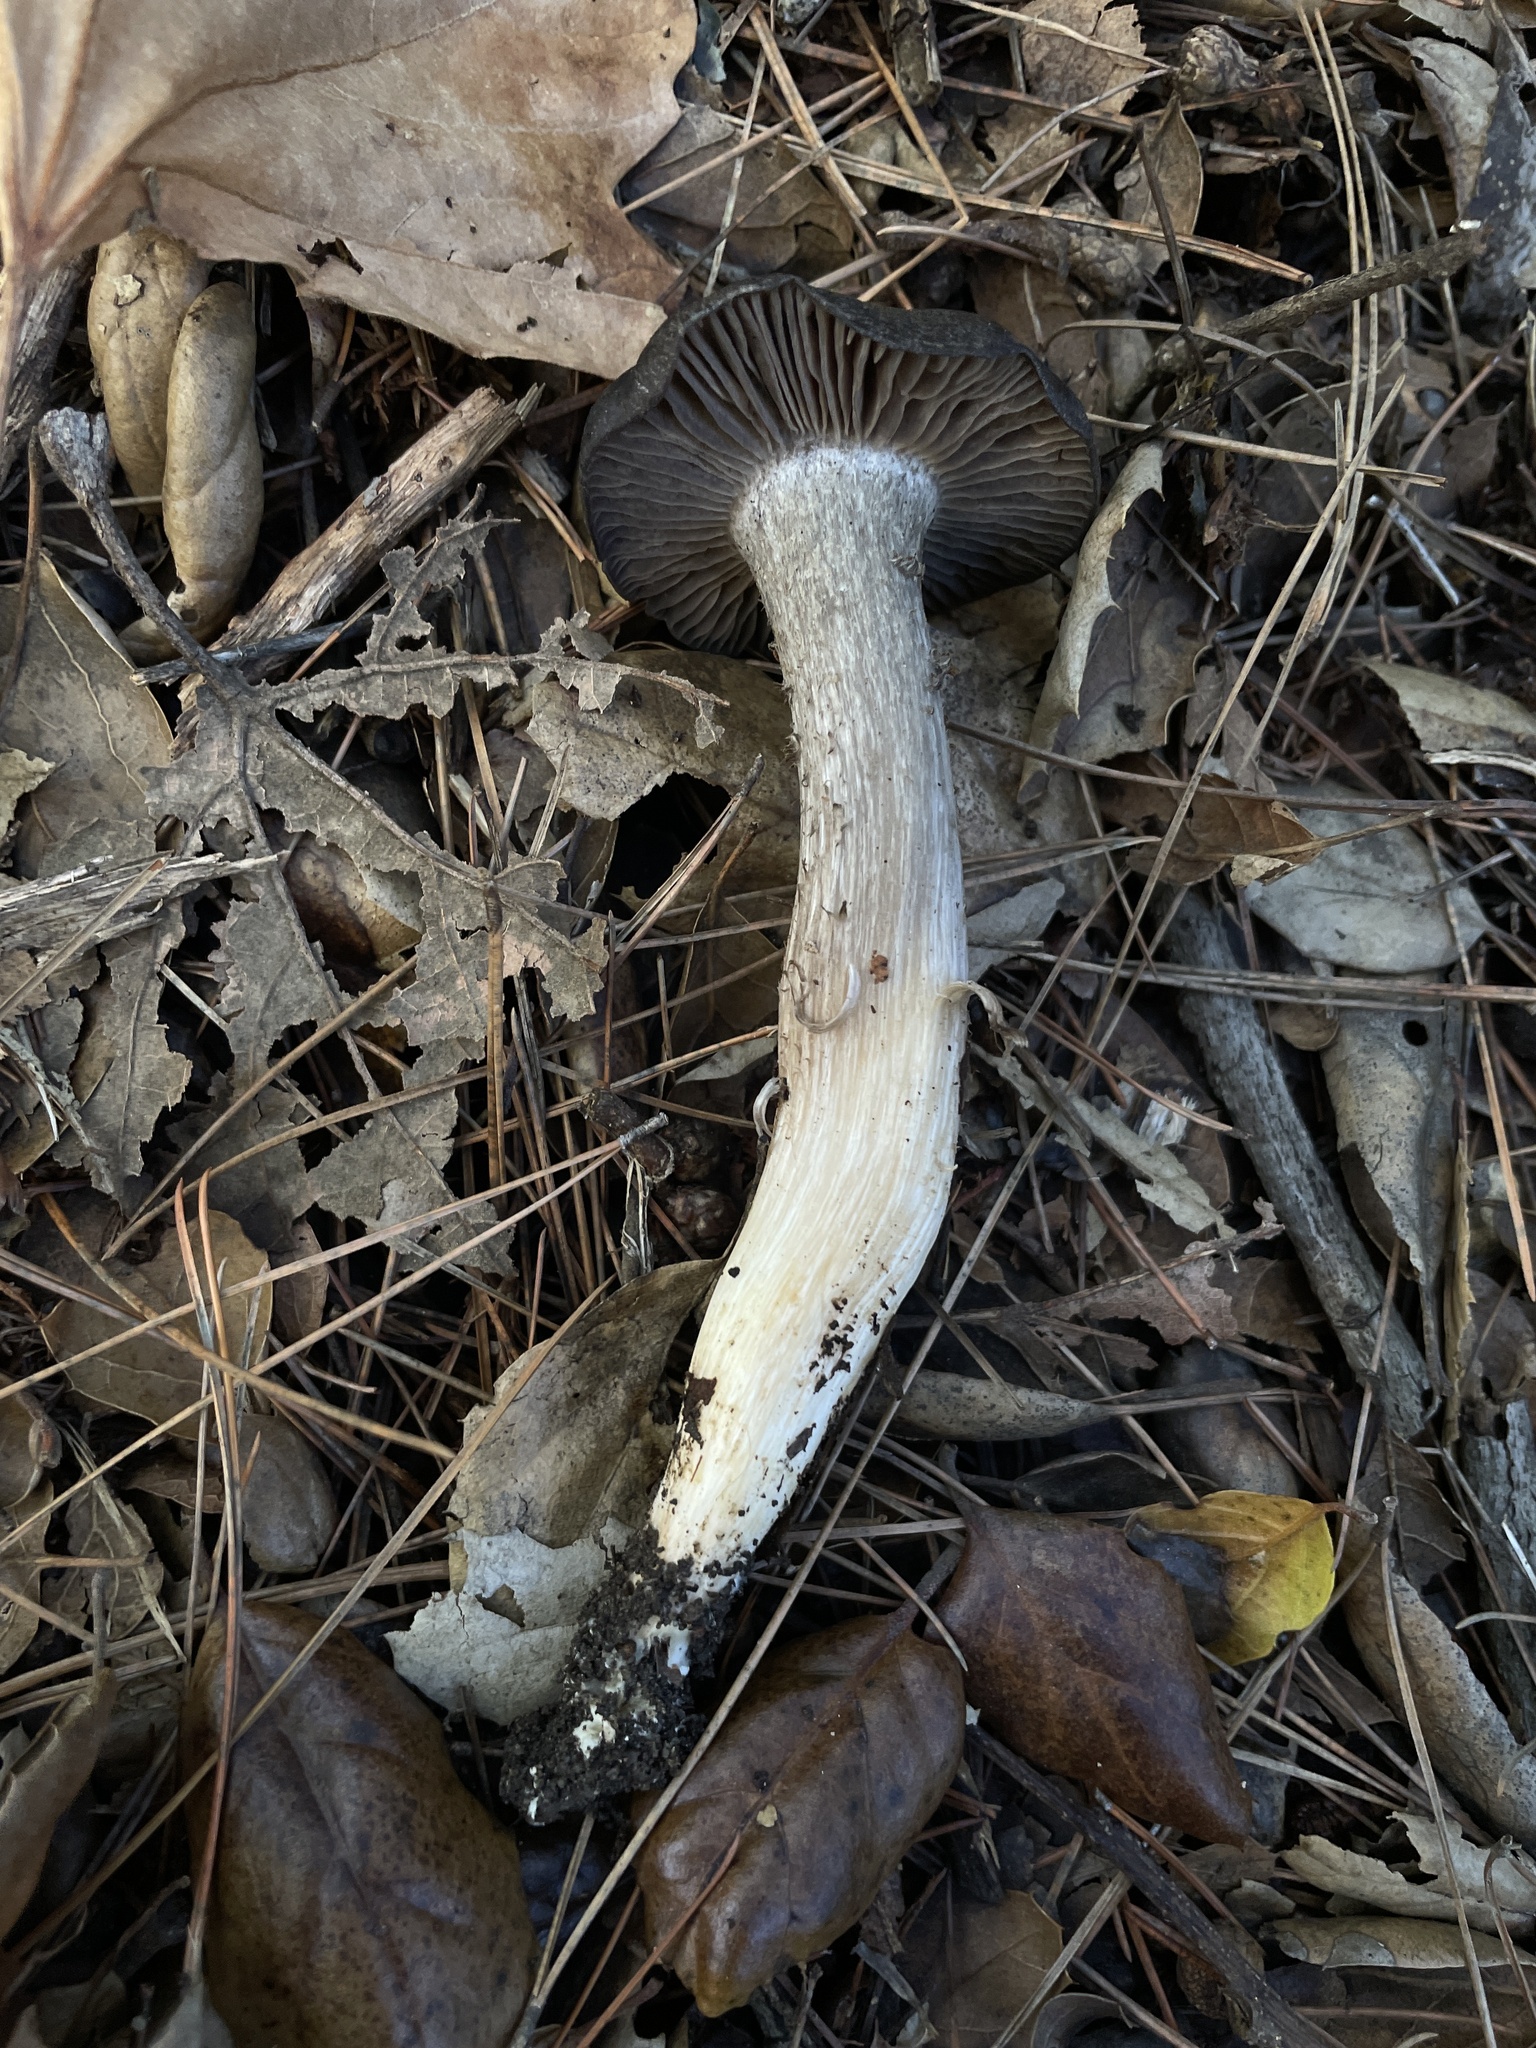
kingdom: Fungi
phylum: Basidiomycota
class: Agaricomycetes
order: Agaricales
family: Entolomataceae
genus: Entoloma
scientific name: Entoloma ferruginans
